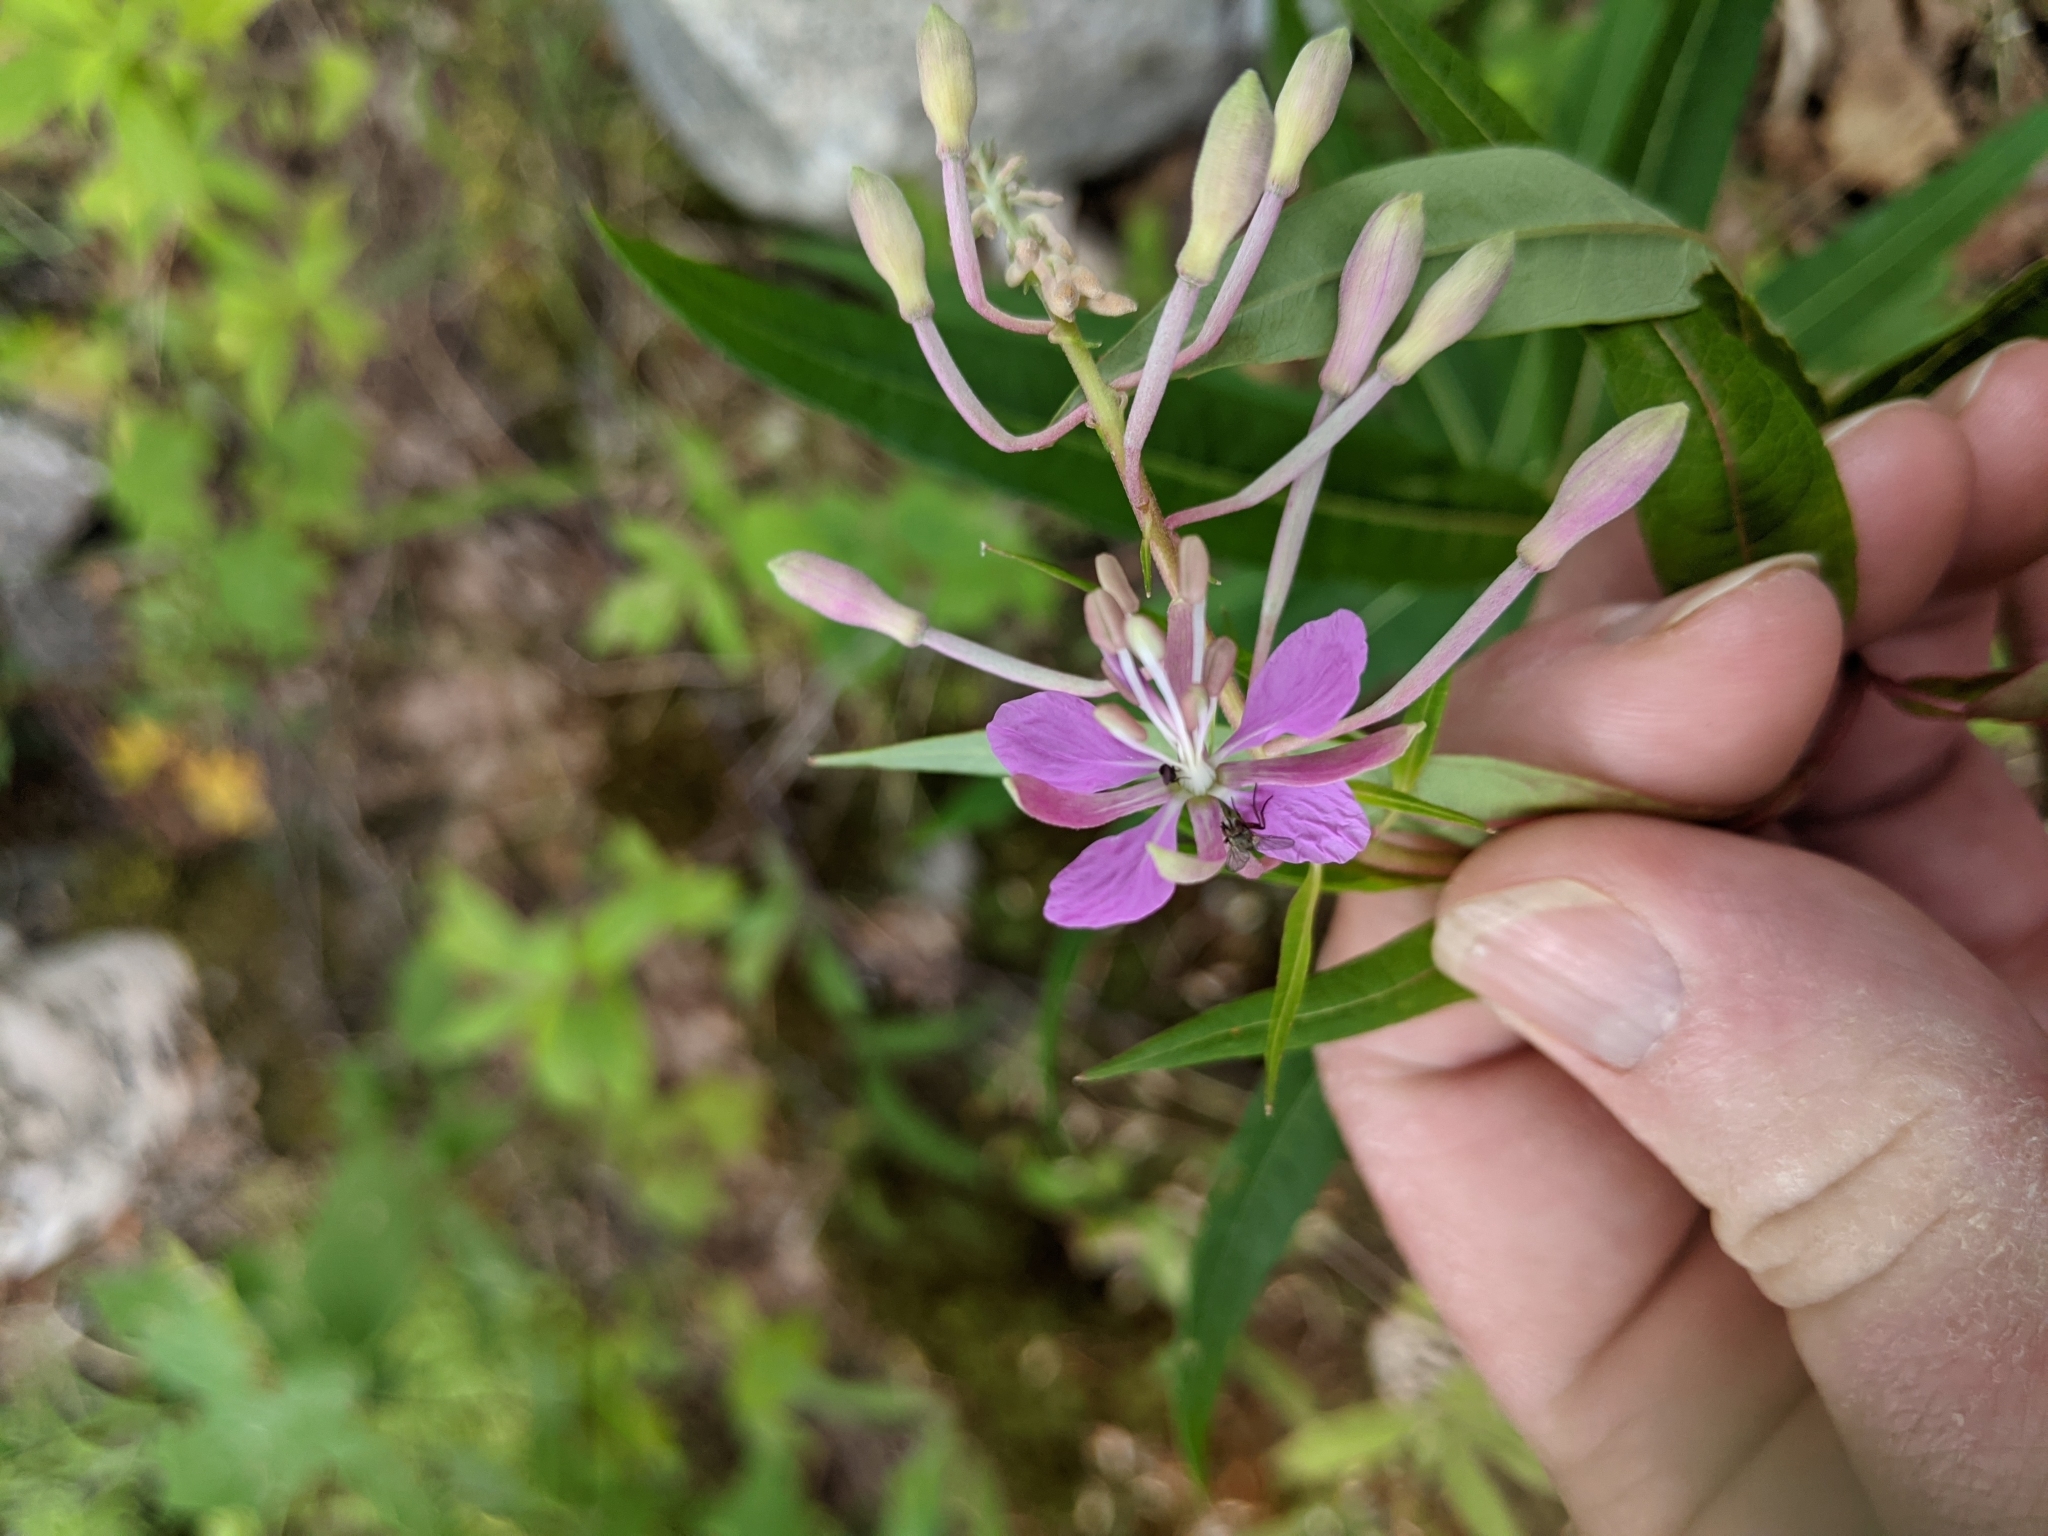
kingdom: Plantae
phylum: Tracheophyta
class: Magnoliopsida
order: Myrtales
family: Onagraceae
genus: Chamaenerion
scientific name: Chamaenerion angustifolium
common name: Fireweed
